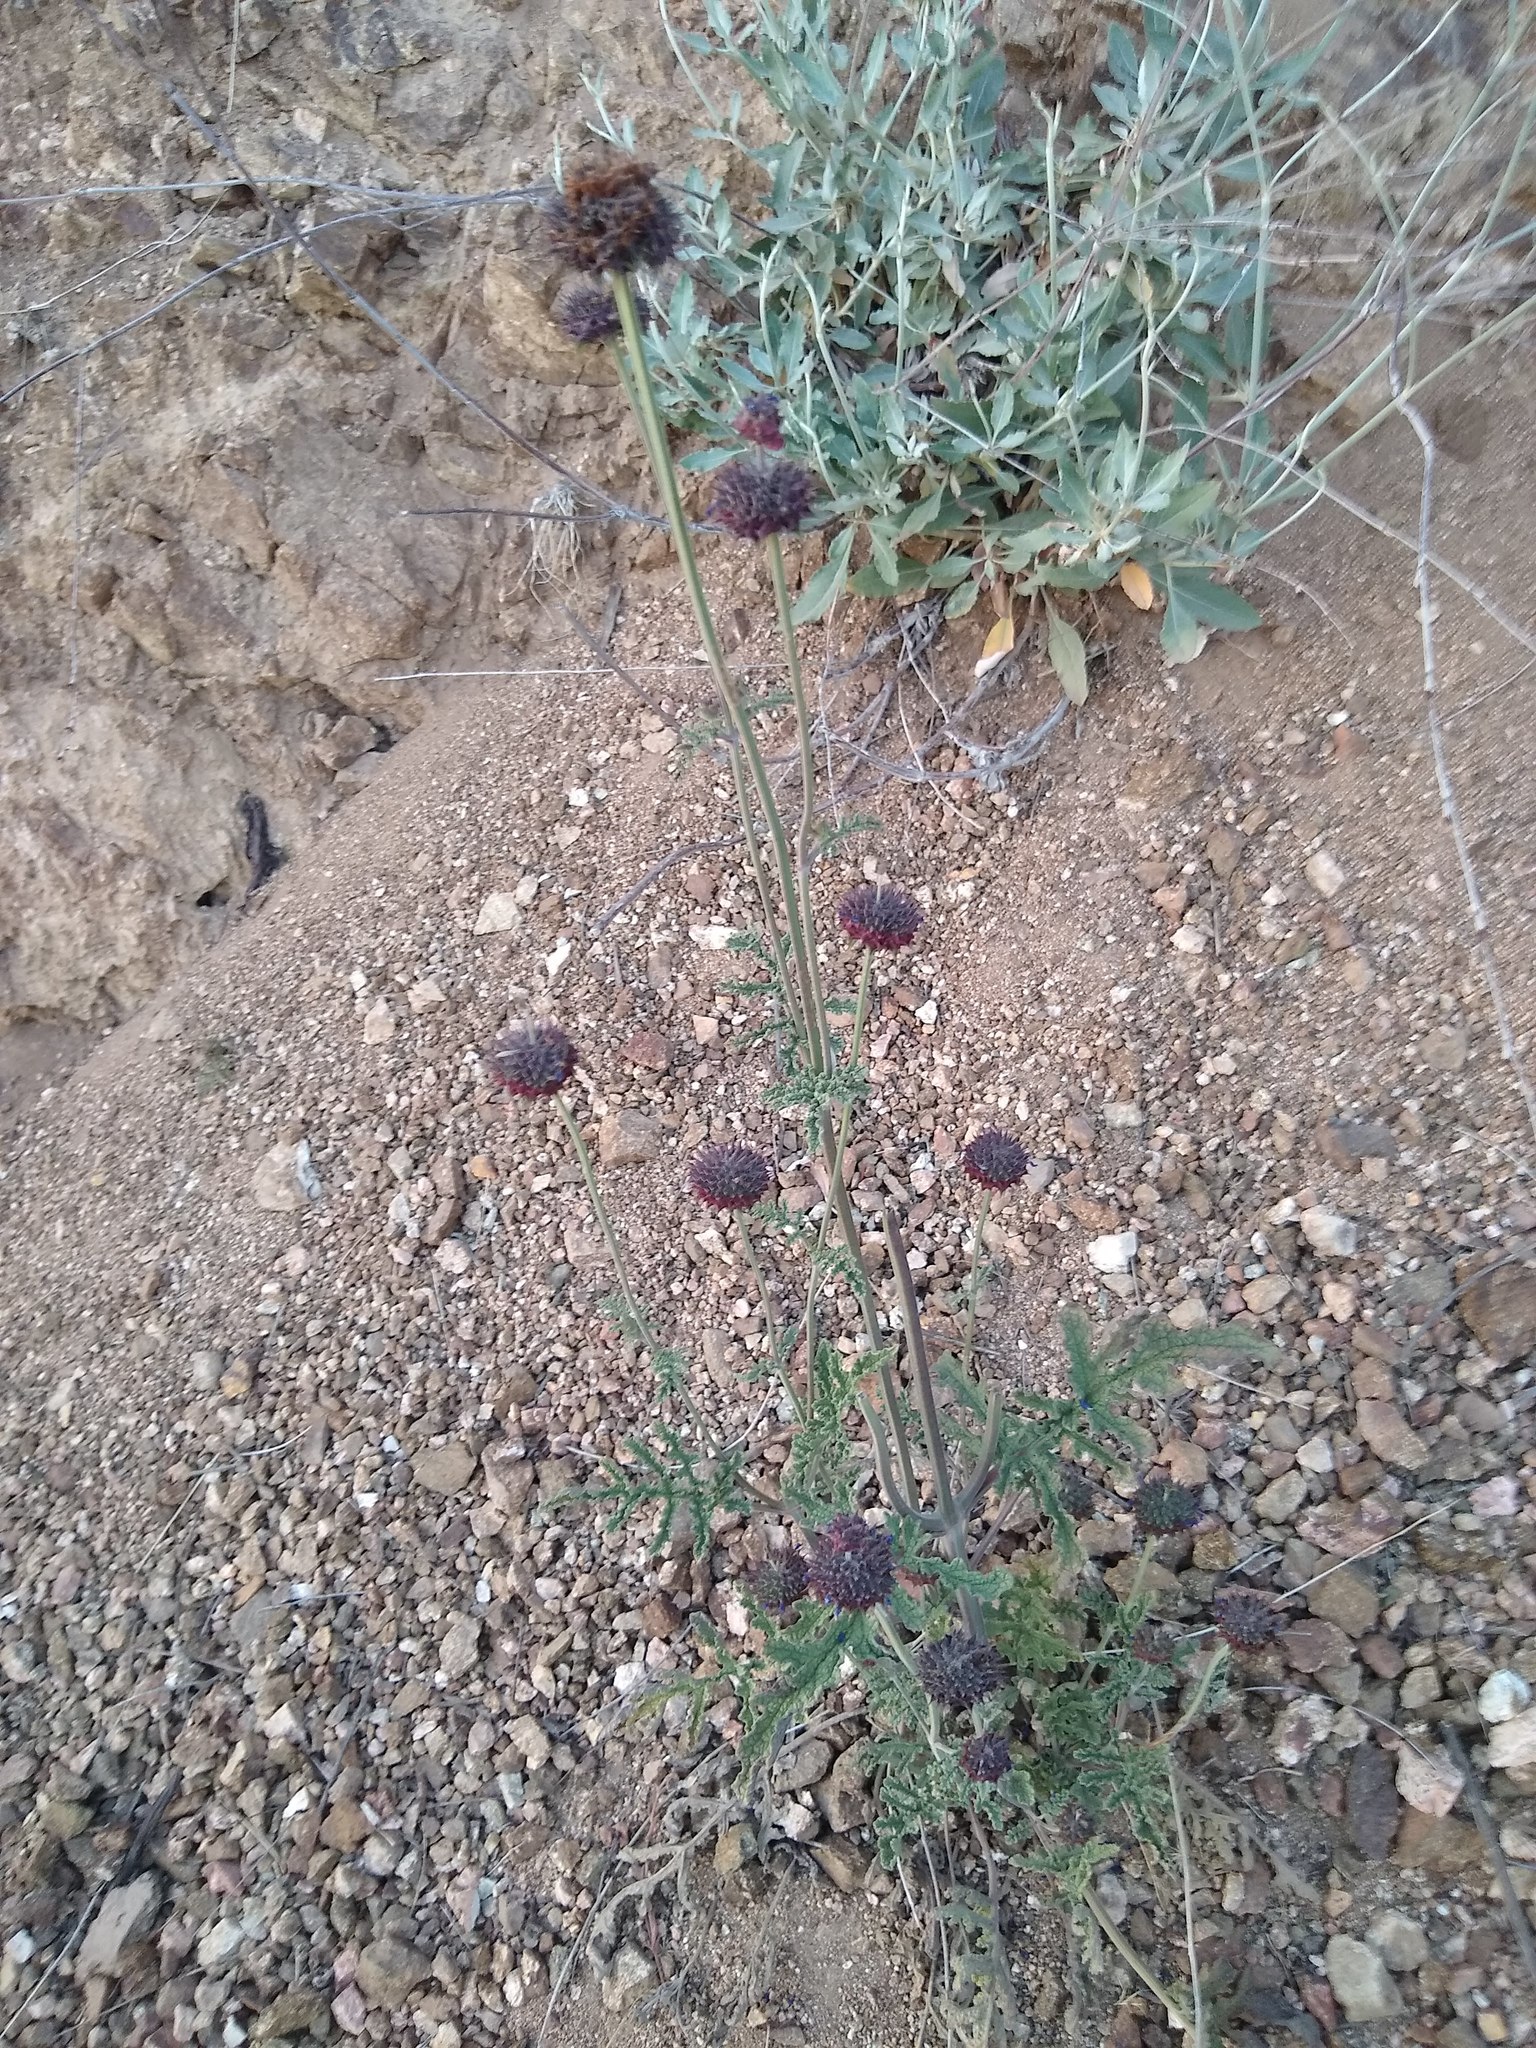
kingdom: Plantae
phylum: Tracheophyta
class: Magnoliopsida
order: Lamiales
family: Lamiaceae
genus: Salvia
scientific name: Salvia columbariae
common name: Chia
